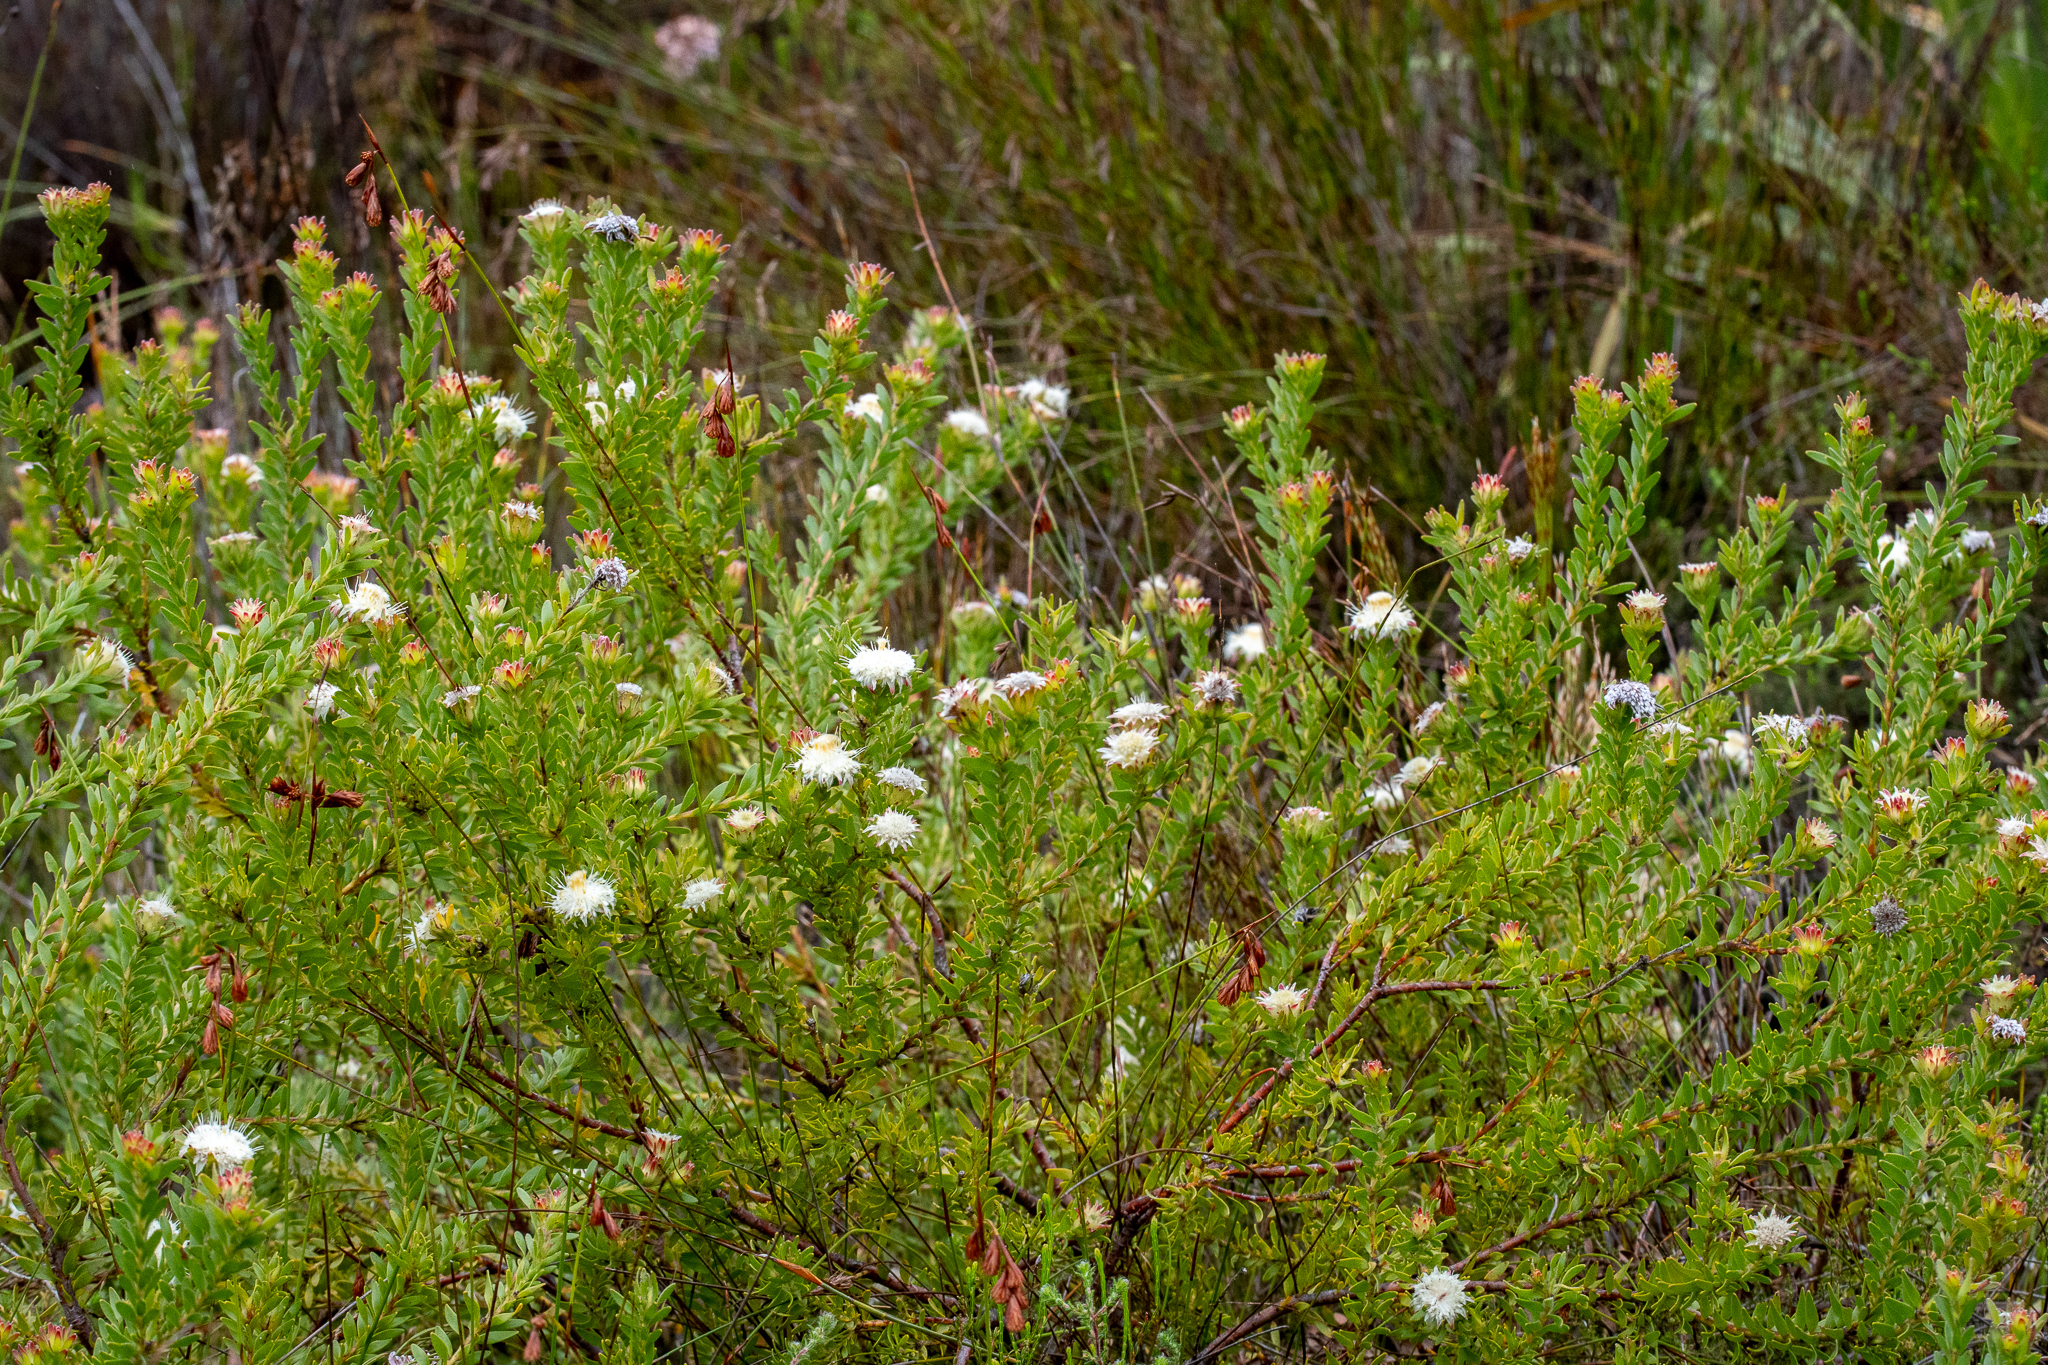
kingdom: Plantae
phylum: Tracheophyta
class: Magnoliopsida
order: Proteales
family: Proteaceae
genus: Diastella
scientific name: Diastella fraterna
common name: Palmiet silkypuff
